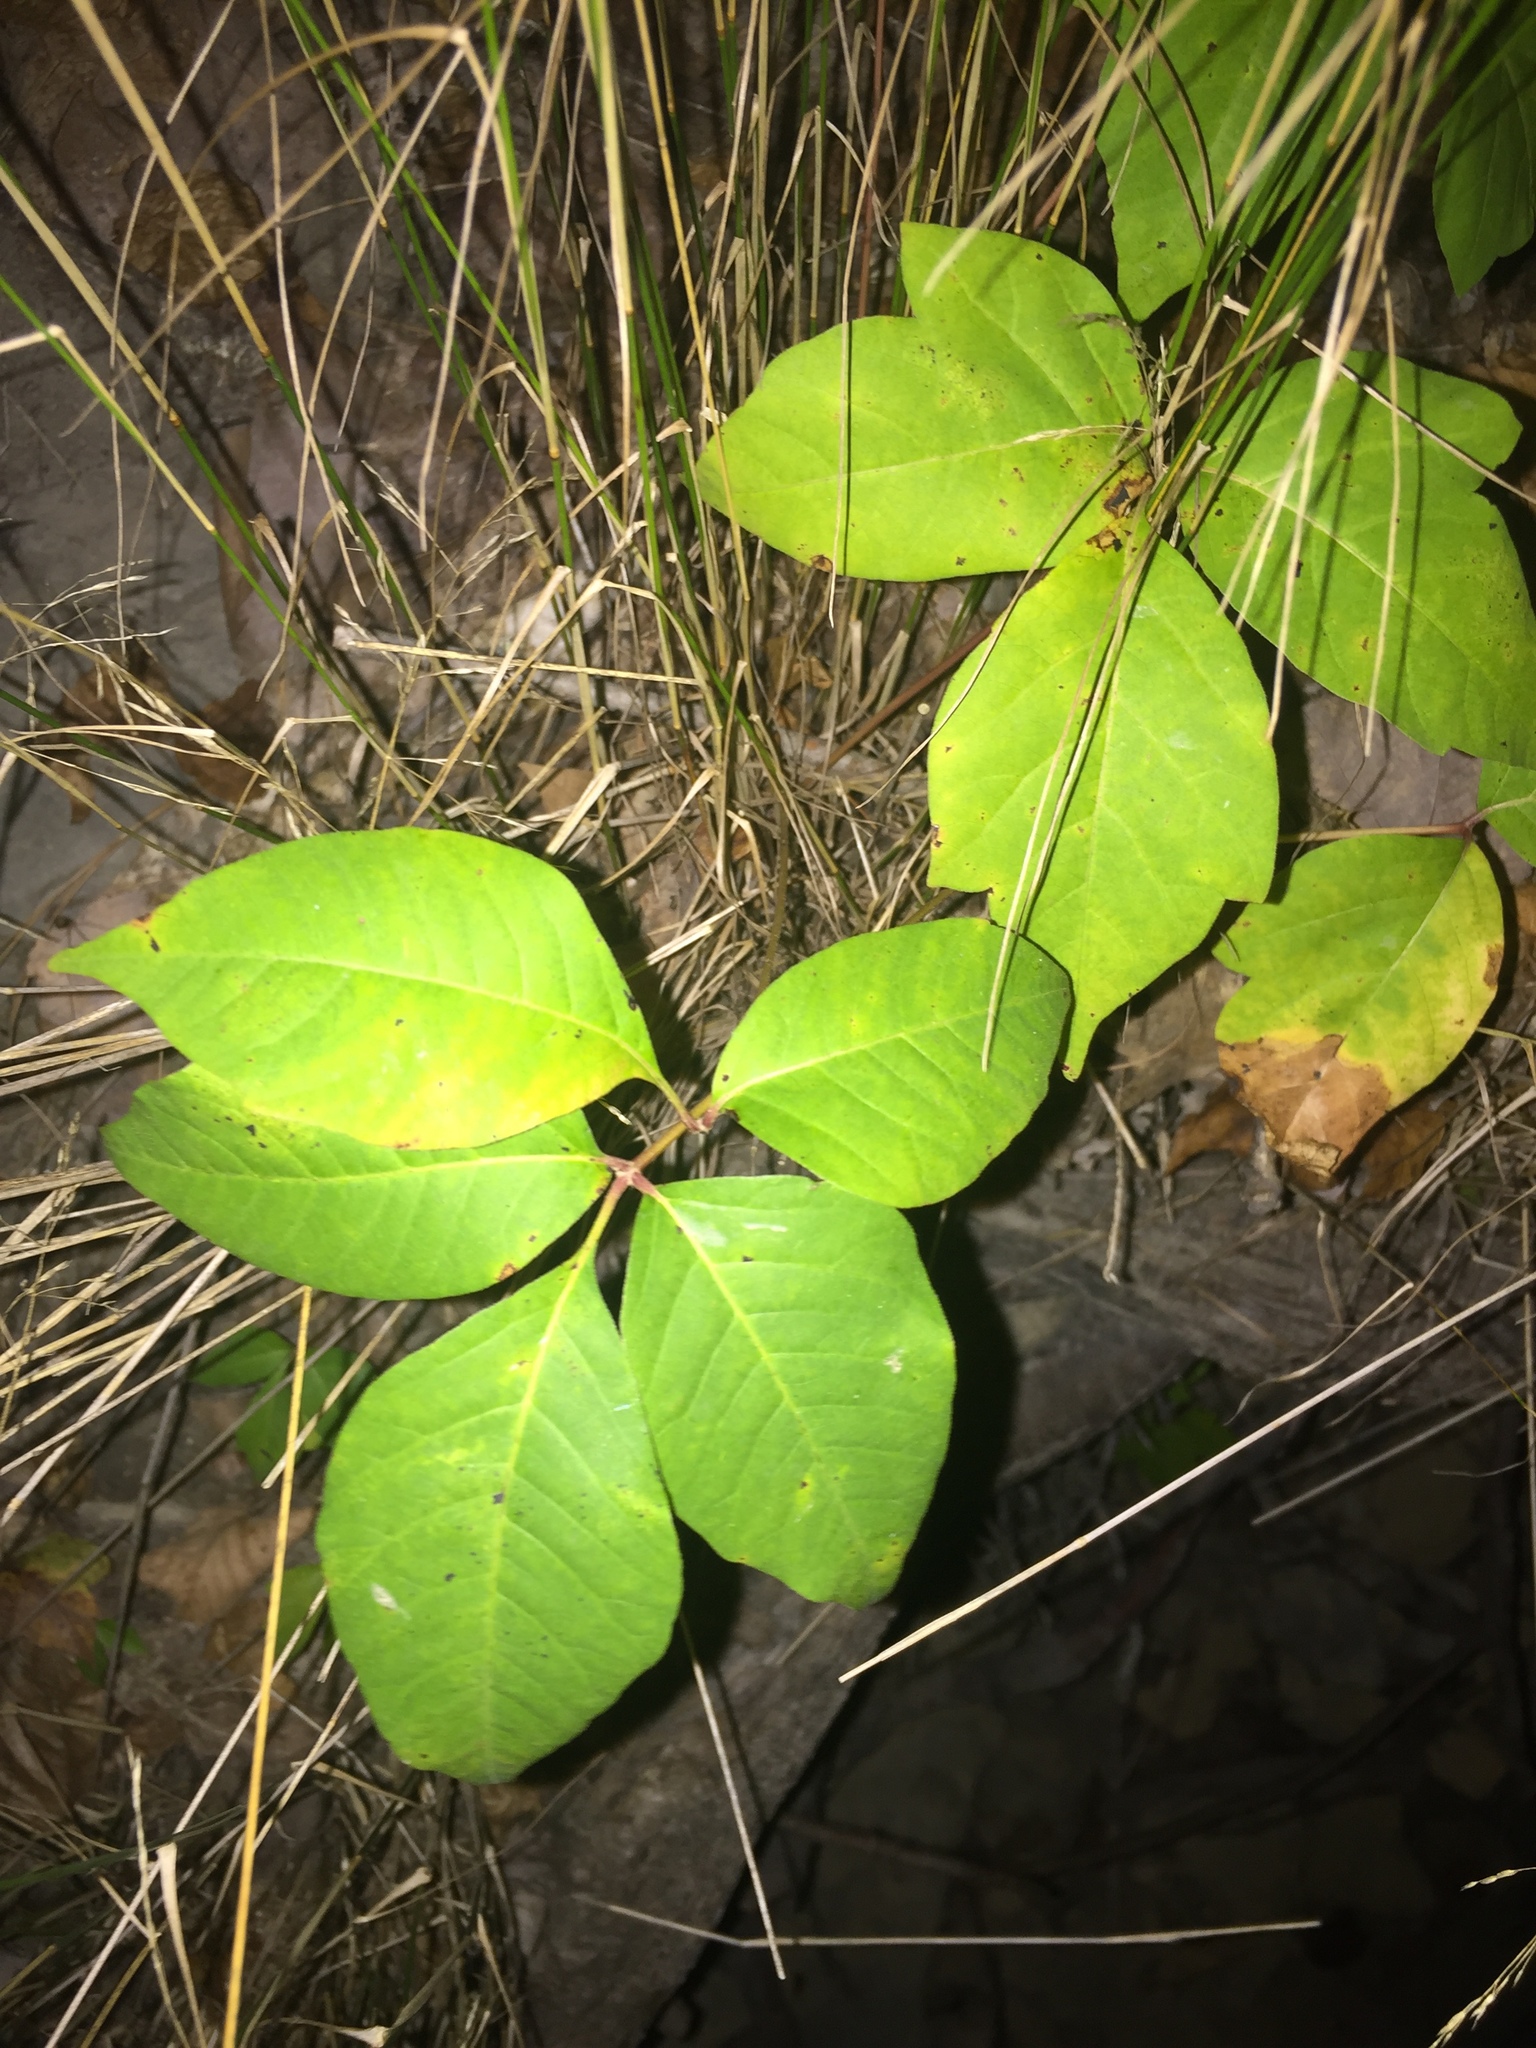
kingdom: Plantae
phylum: Tracheophyta
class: Magnoliopsida
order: Sapindales
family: Anacardiaceae
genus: Toxicodendron
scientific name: Toxicodendron radicans
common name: Poison ivy
